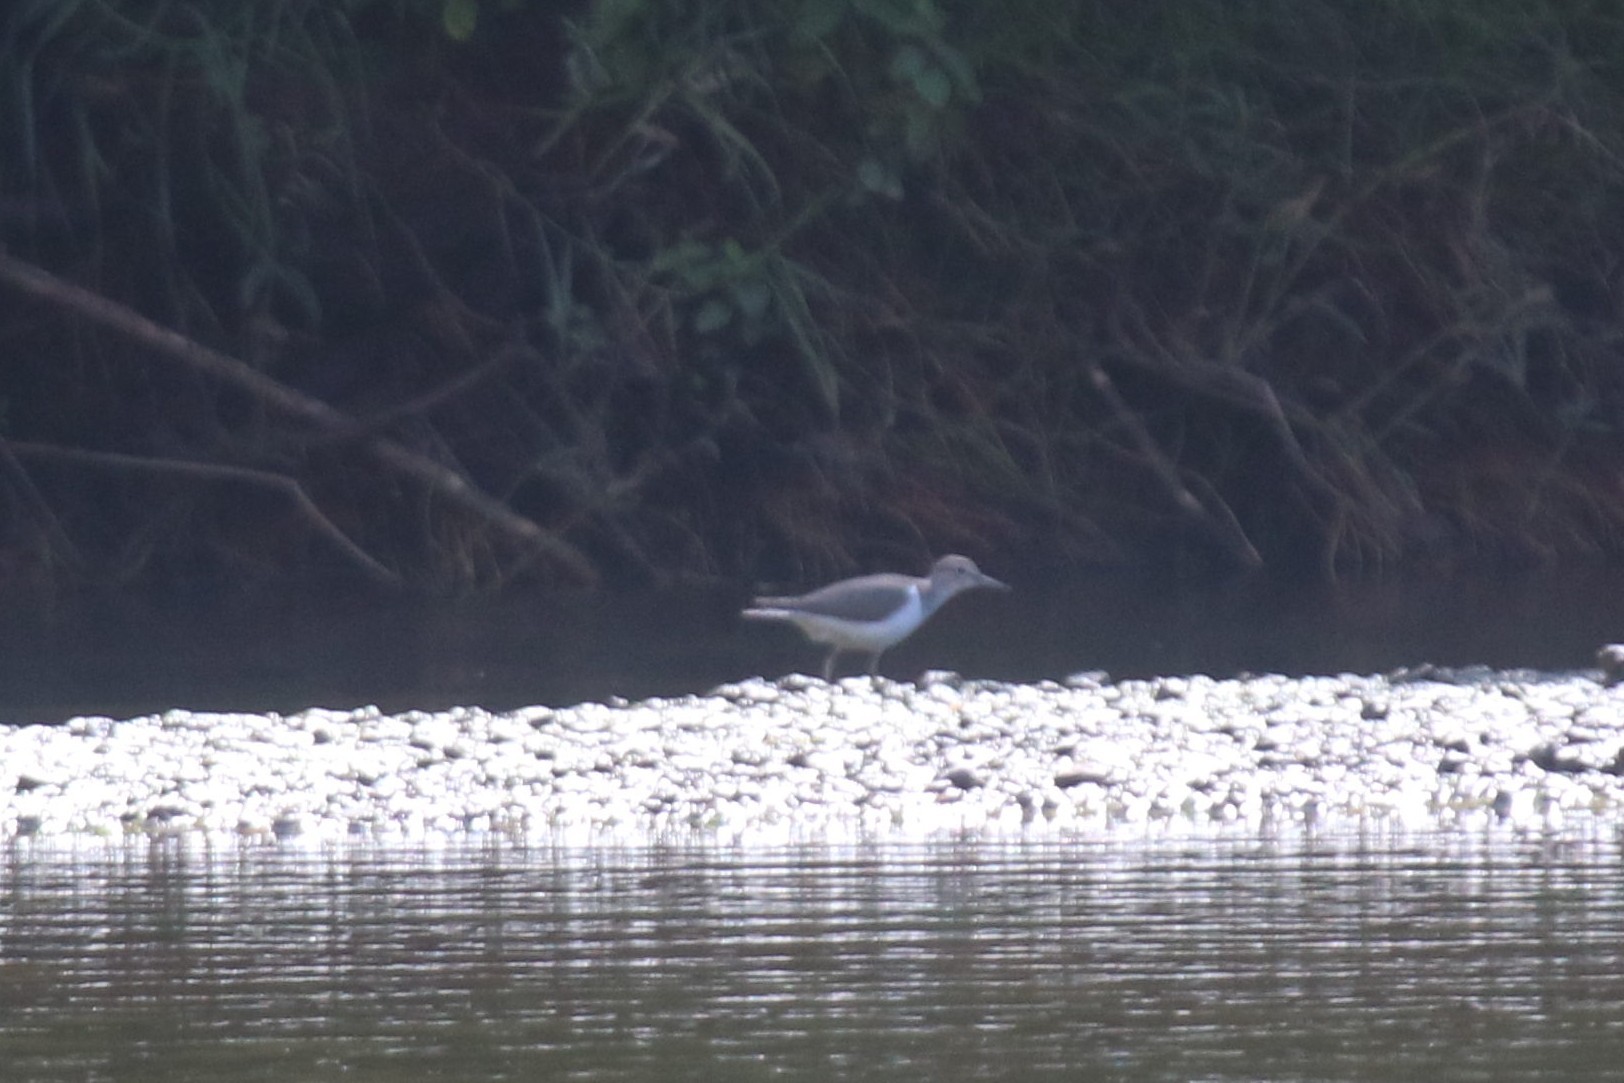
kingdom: Animalia
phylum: Chordata
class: Aves
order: Charadriiformes
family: Scolopacidae
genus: Actitis
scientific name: Actitis hypoleucos
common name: Common sandpiper
